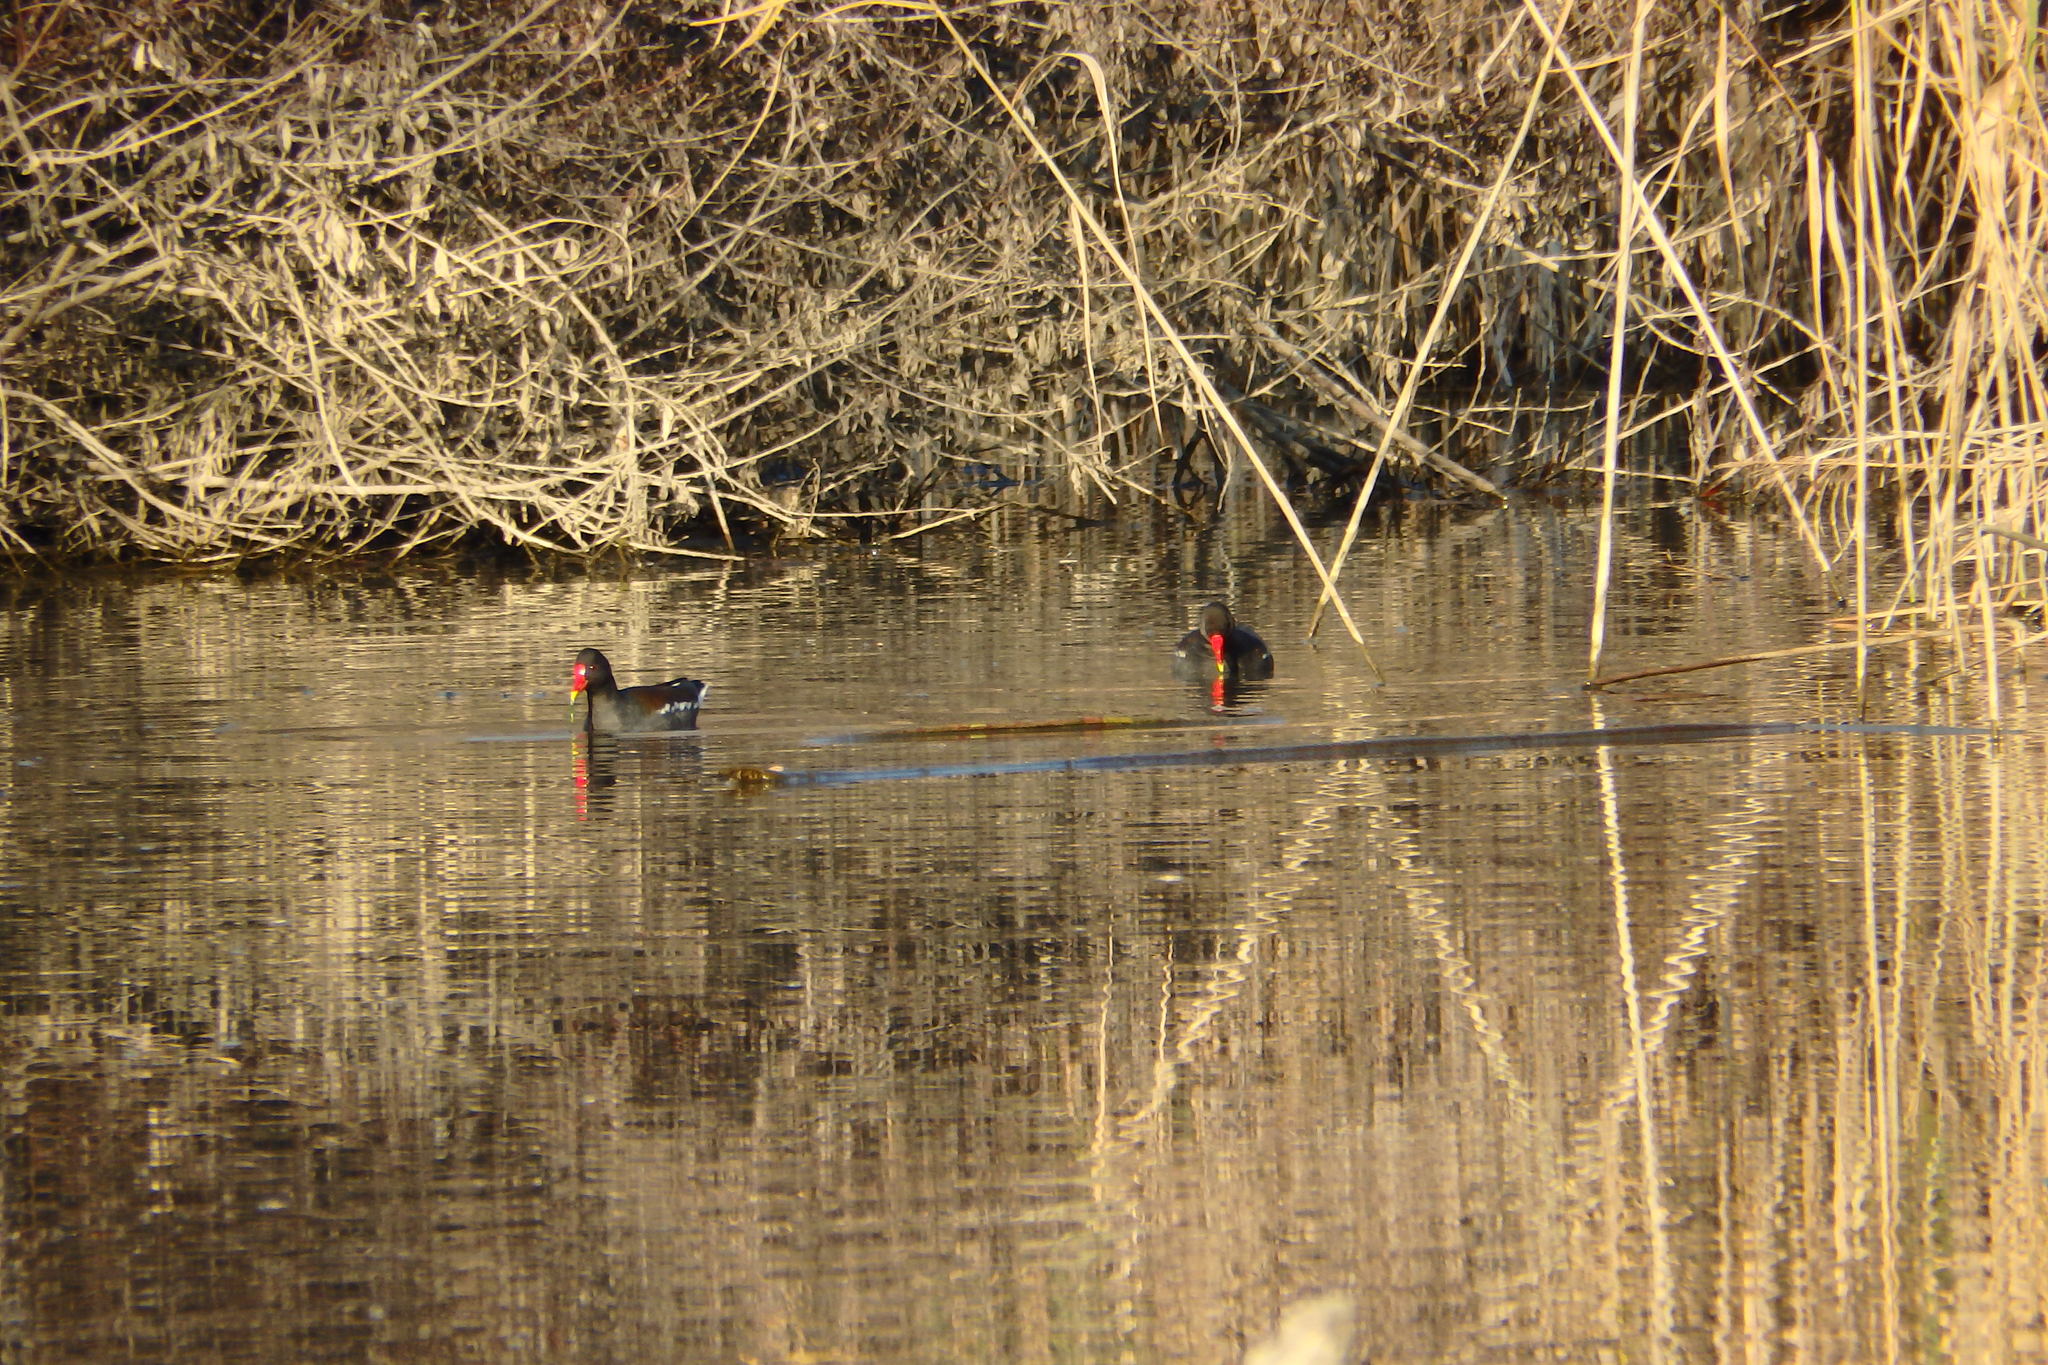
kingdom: Animalia
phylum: Chordata
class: Aves
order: Gruiformes
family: Rallidae
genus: Gallinula
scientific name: Gallinula chloropus
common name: Common moorhen
